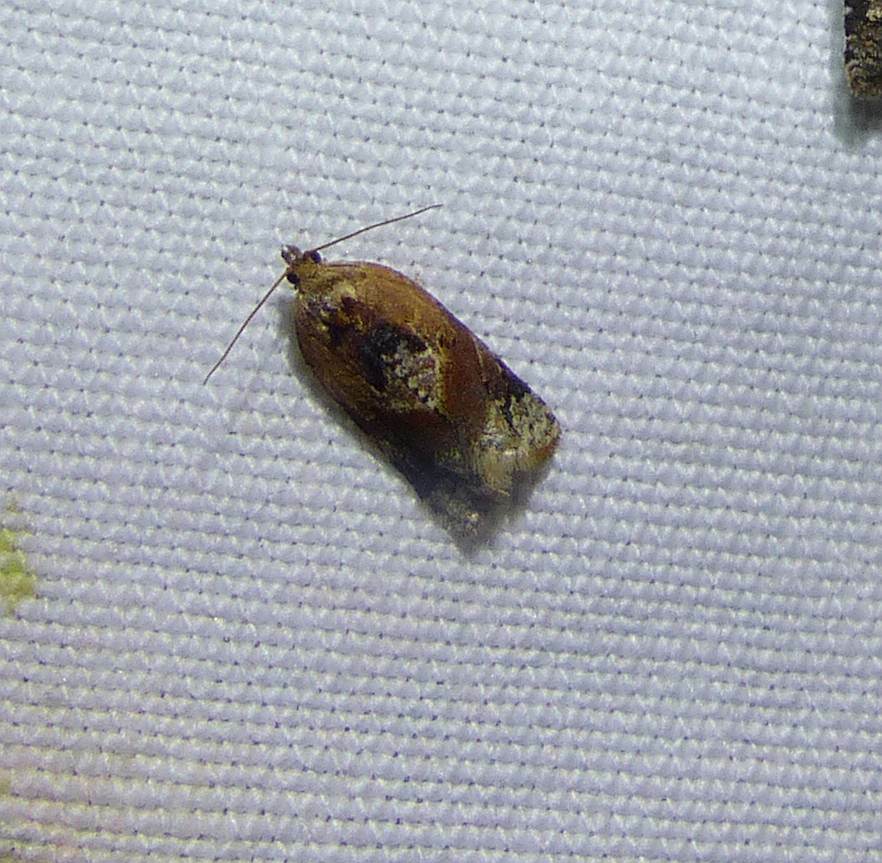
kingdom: Animalia
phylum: Arthropoda
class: Insecta
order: Lepidoptera
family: Tortricidae
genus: Argyrotaenia
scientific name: Argyrotaenia velutinana
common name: Red-banded leafroller moth
